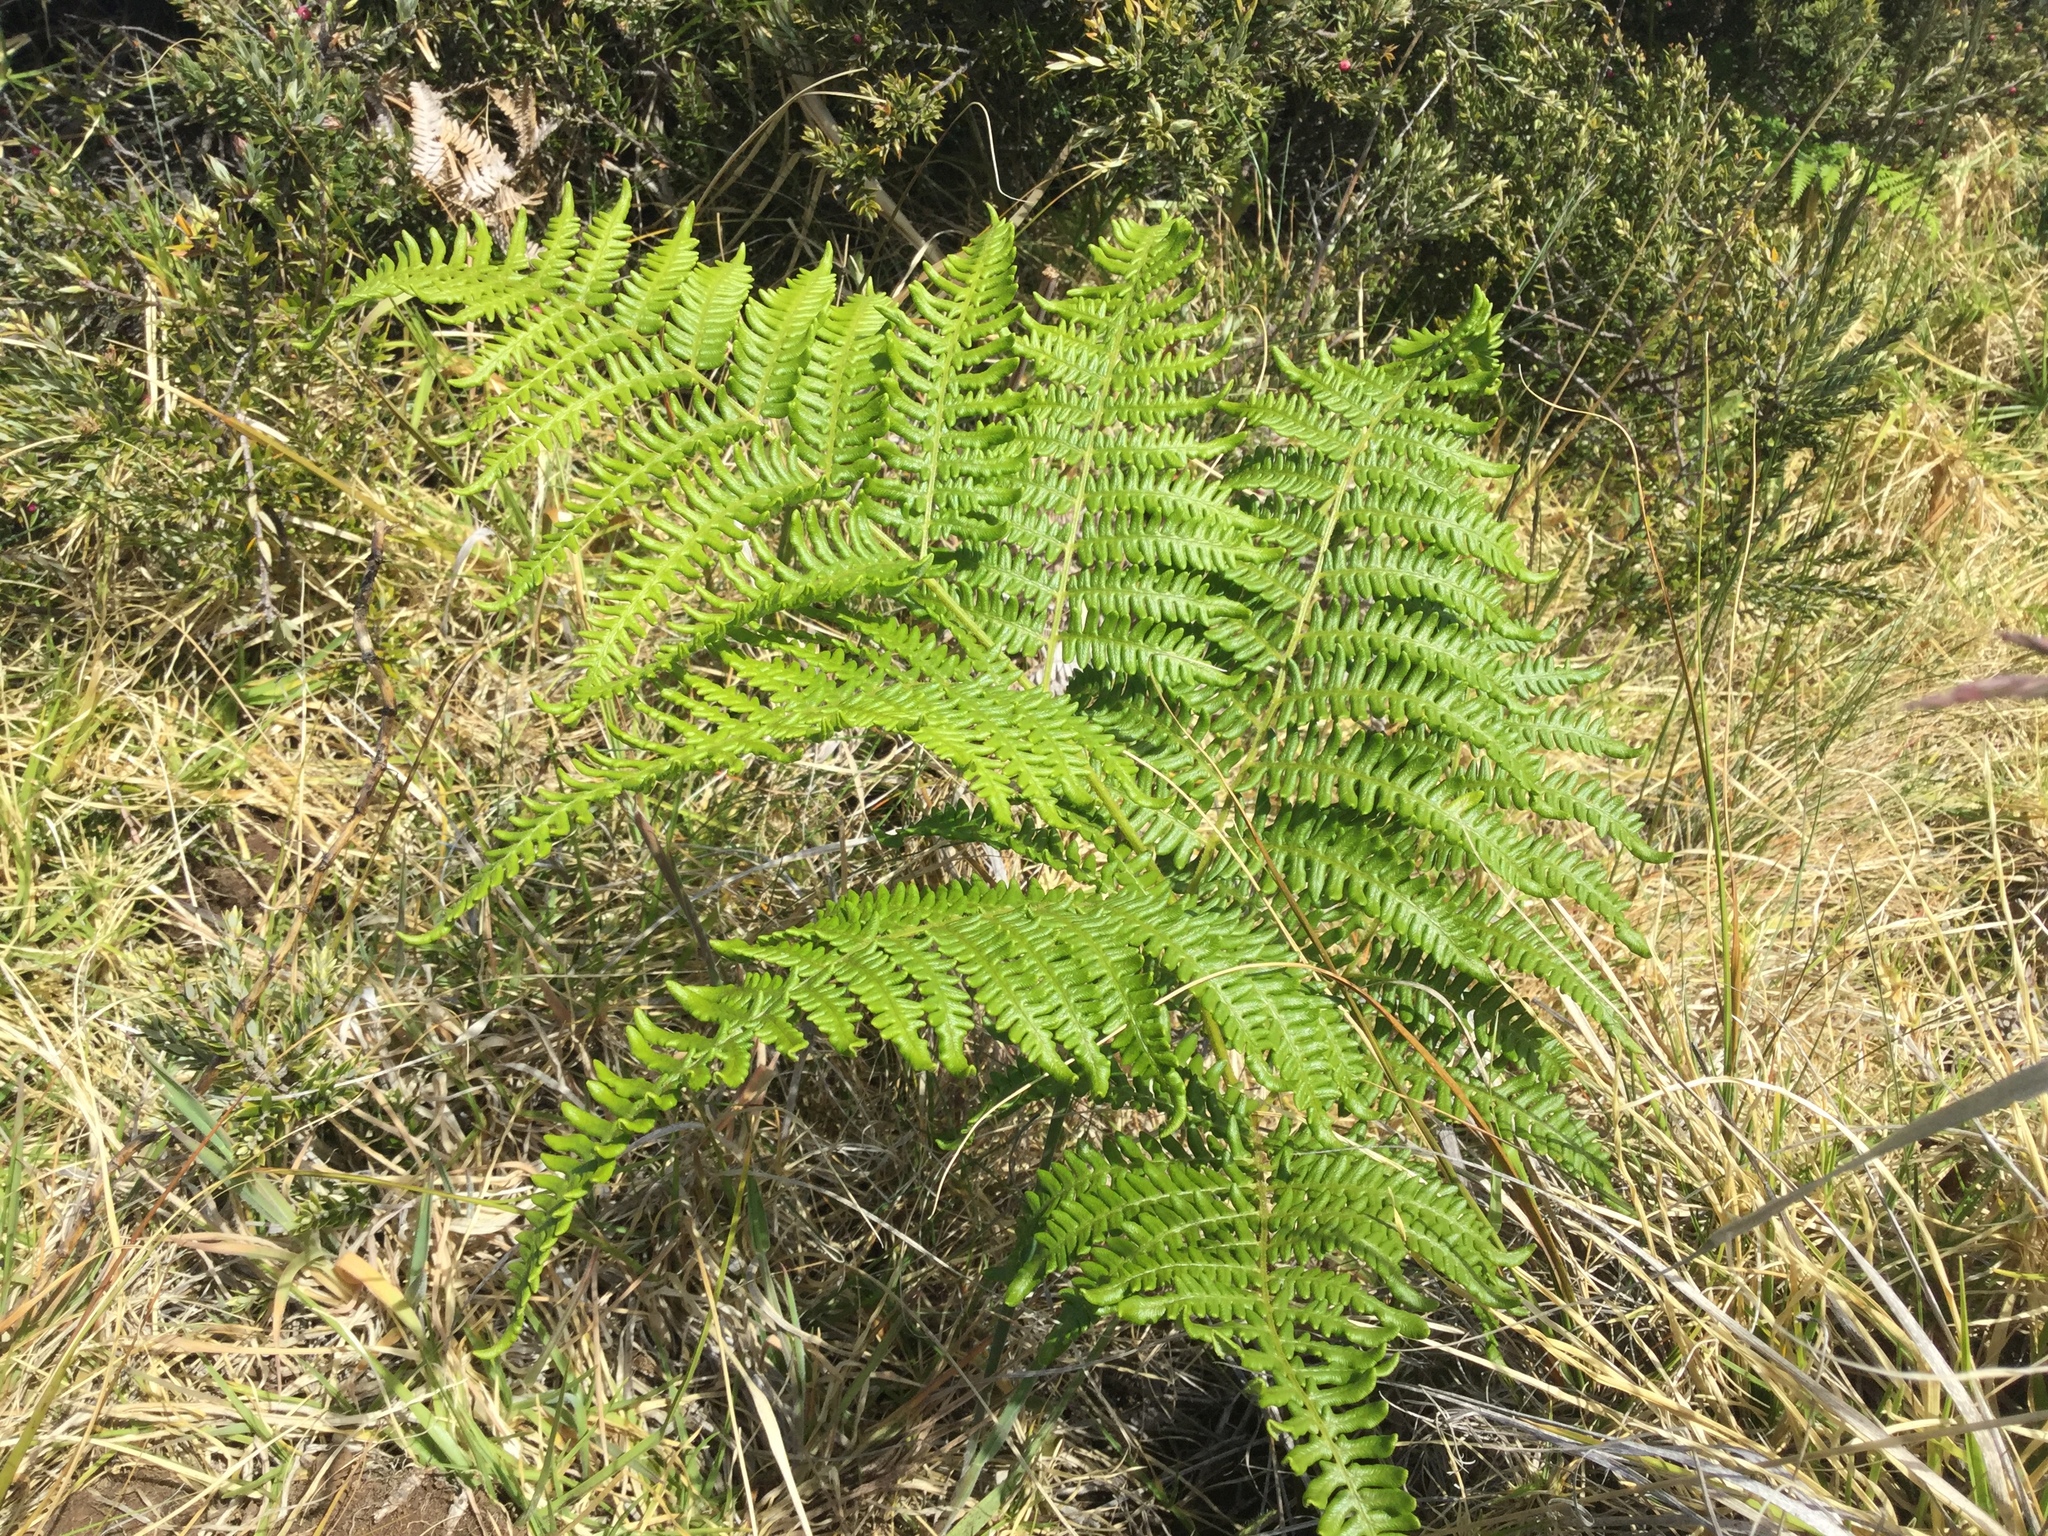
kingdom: Plantae
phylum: Tracheophyta
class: Polypodiopsida
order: Polypodiales
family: Dennstaedtiaceae
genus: Pteridium
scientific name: Pteridium aquilinum
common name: Bracken
